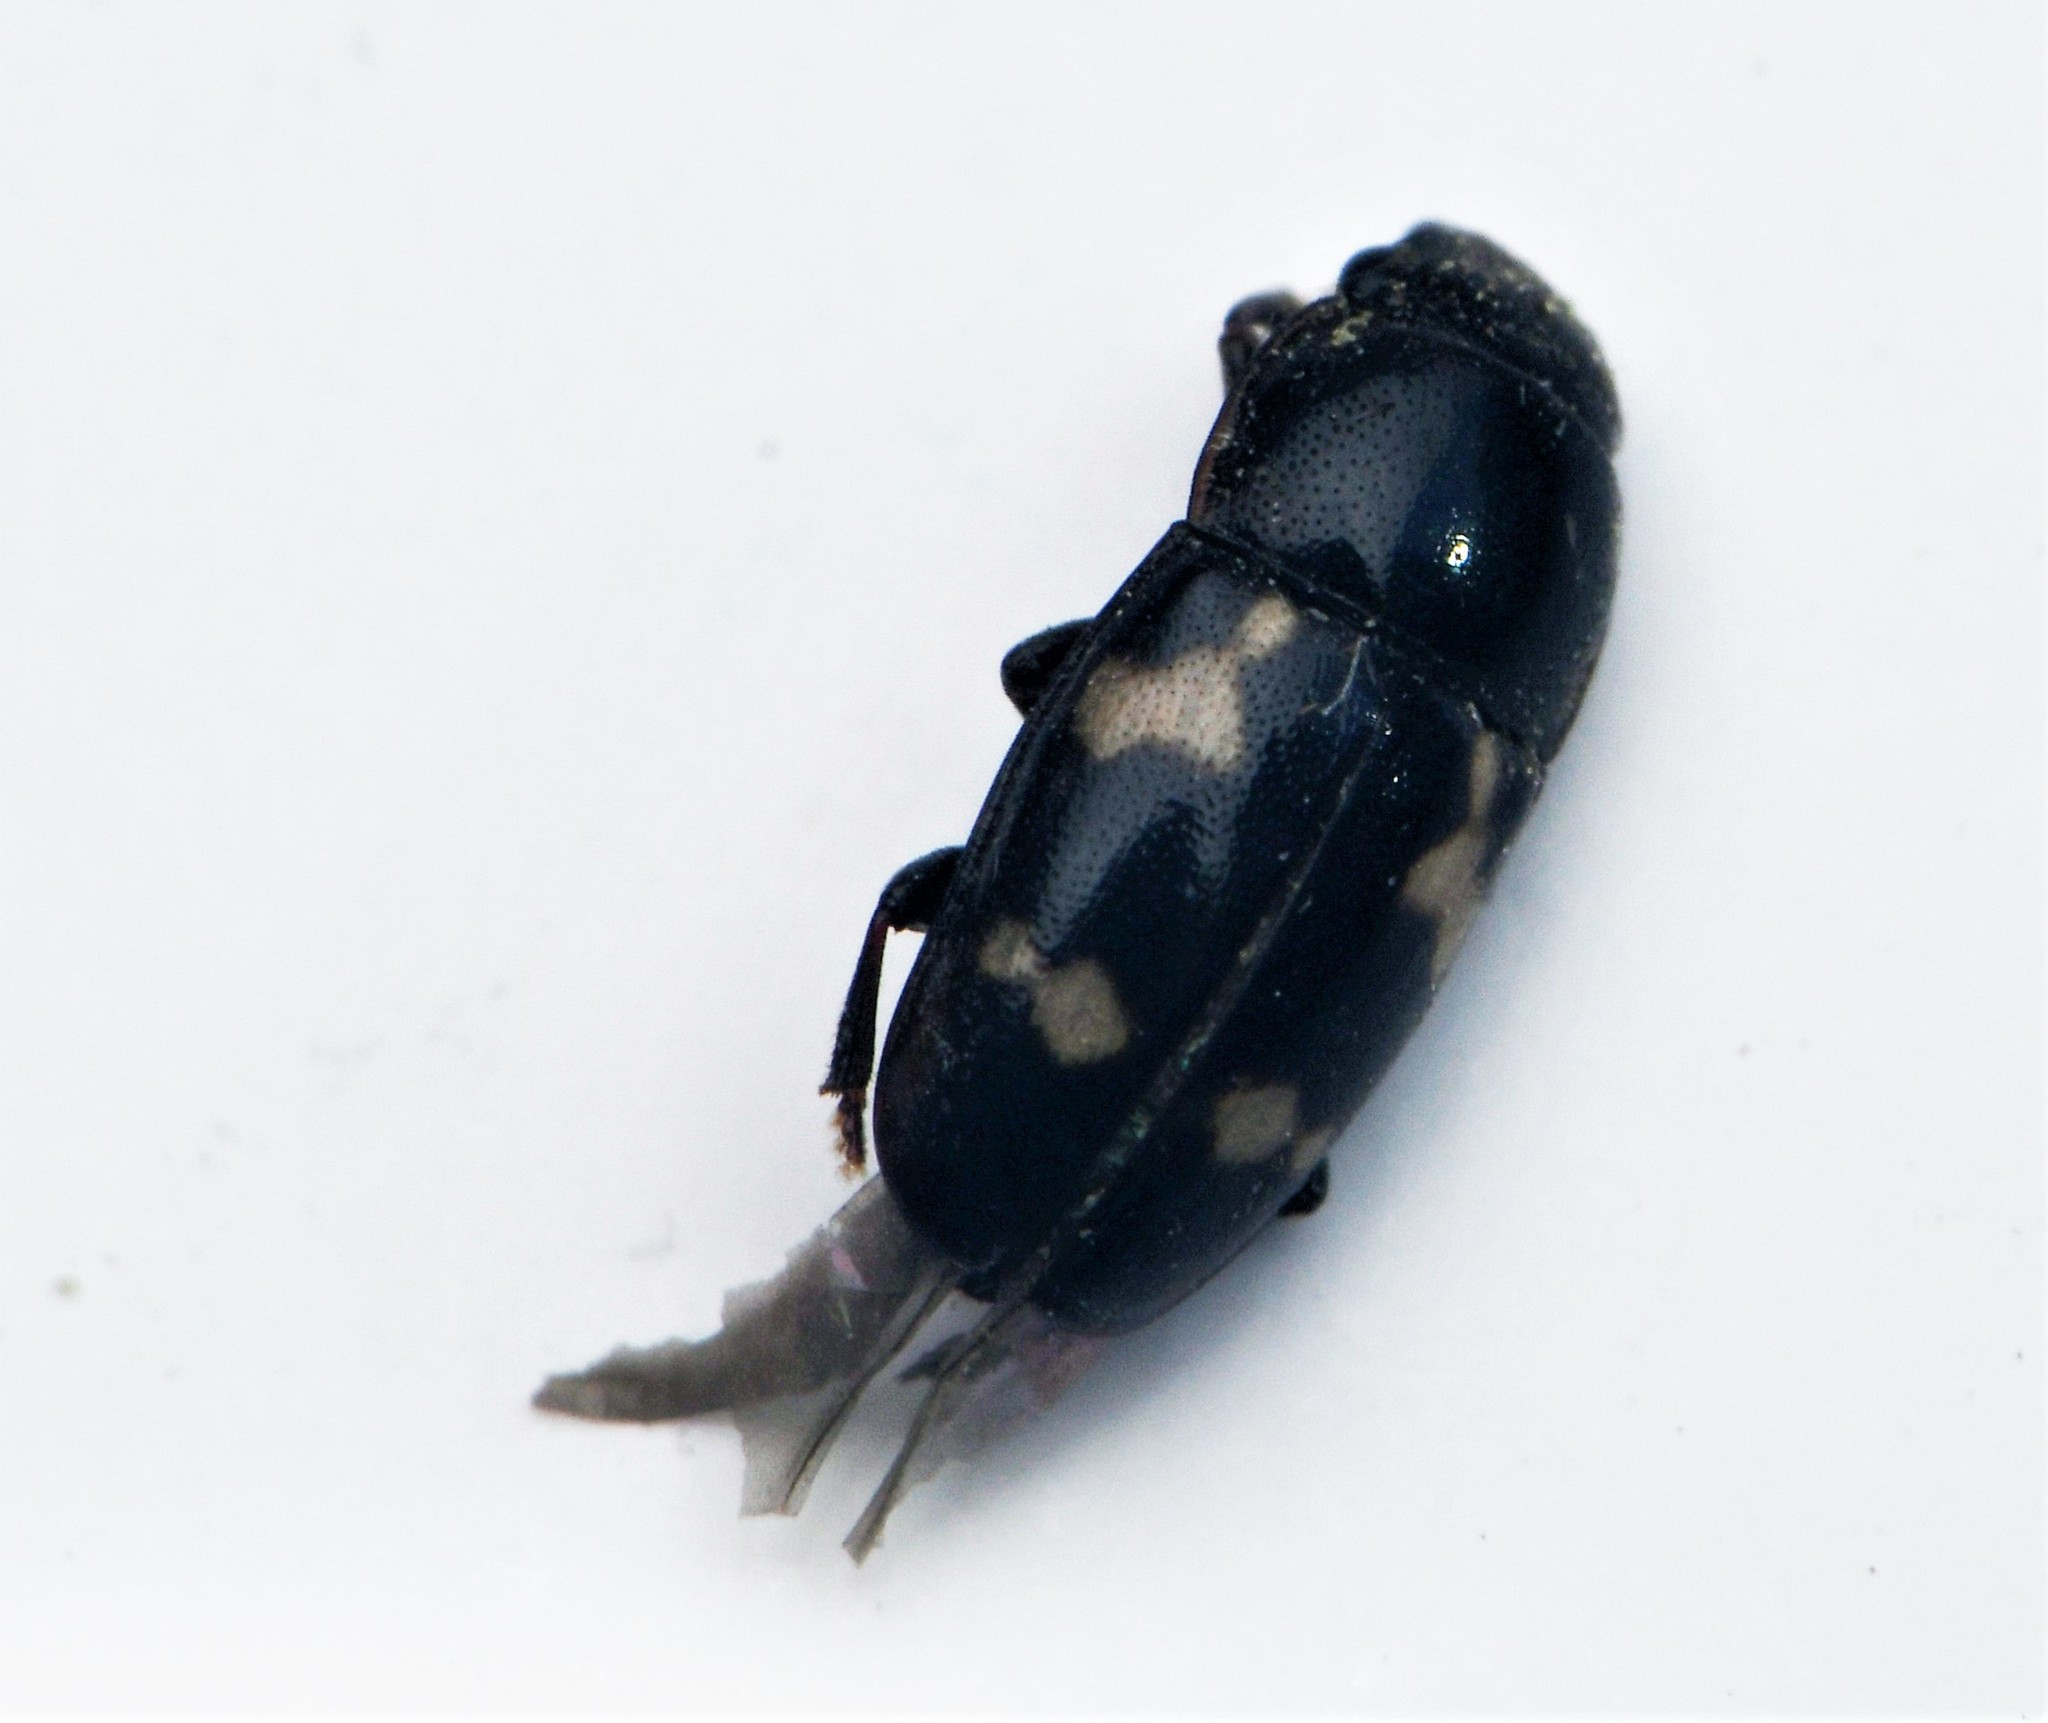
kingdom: Animalia
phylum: Arthropoda
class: Insecta
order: Coleoptera
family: Nitidulidae
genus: Glischrochilus
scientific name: Glischrochilus quadriguttatus
